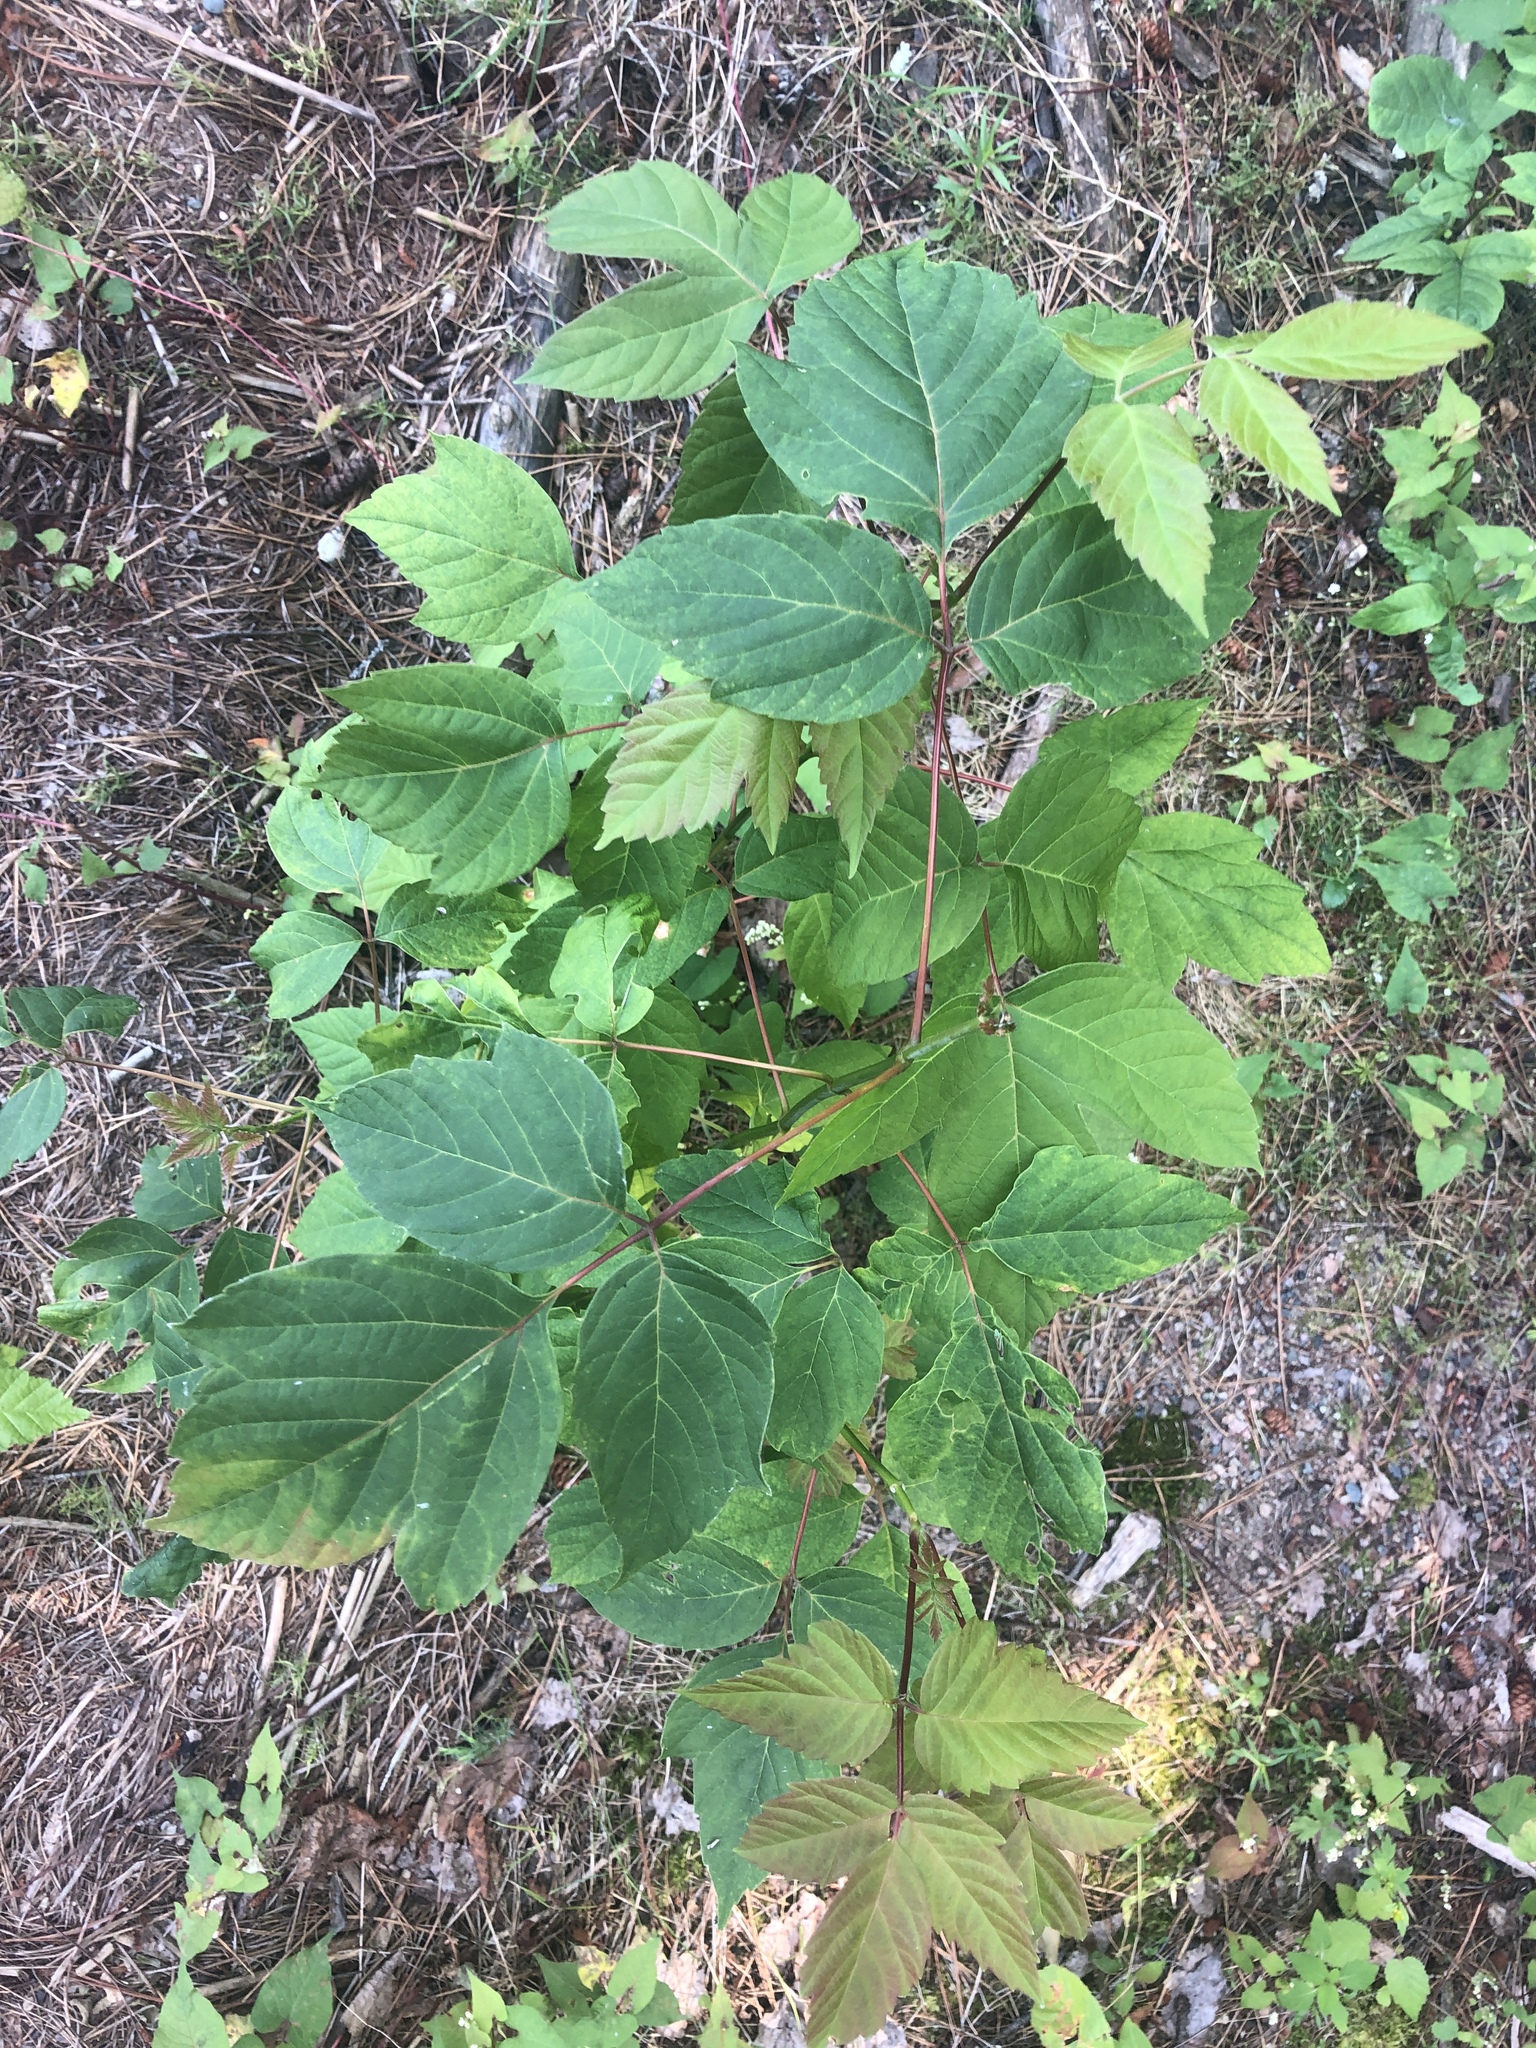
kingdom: Plantae
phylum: Tracheophyta
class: Magnoliopsida
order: Sapindales
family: Sapindaceae
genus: Acer
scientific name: Acer negundo
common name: Ashleaf maple
